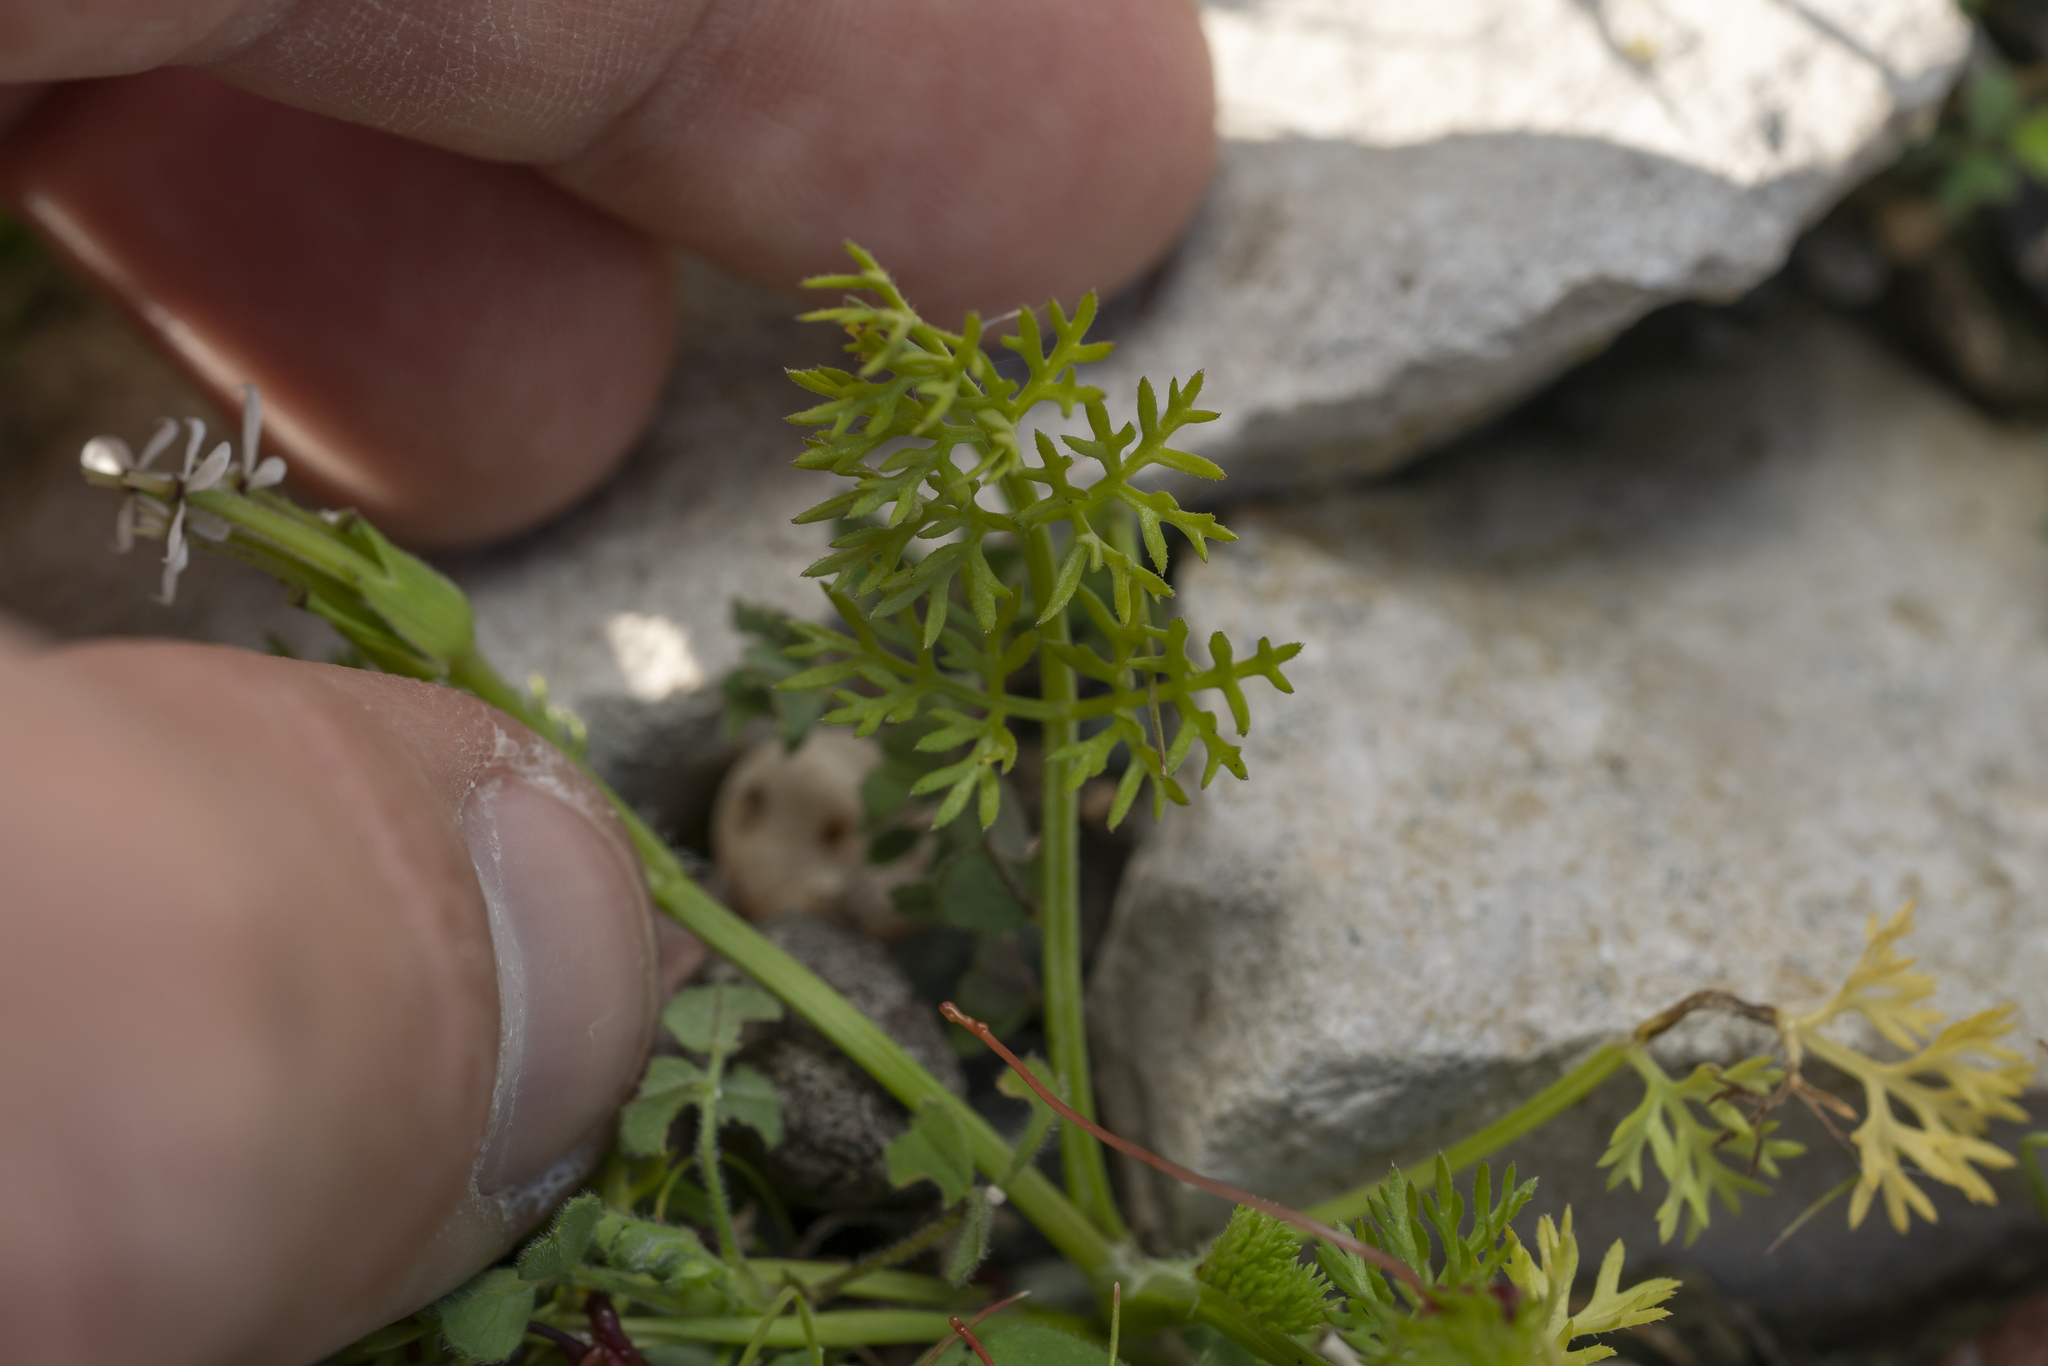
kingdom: Plantae
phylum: Tracheophyta
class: Magnoliopsida
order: Apiales
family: Apiaceae
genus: Scandix
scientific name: Scandix pecten-veneris
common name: Shepherd's-needle
